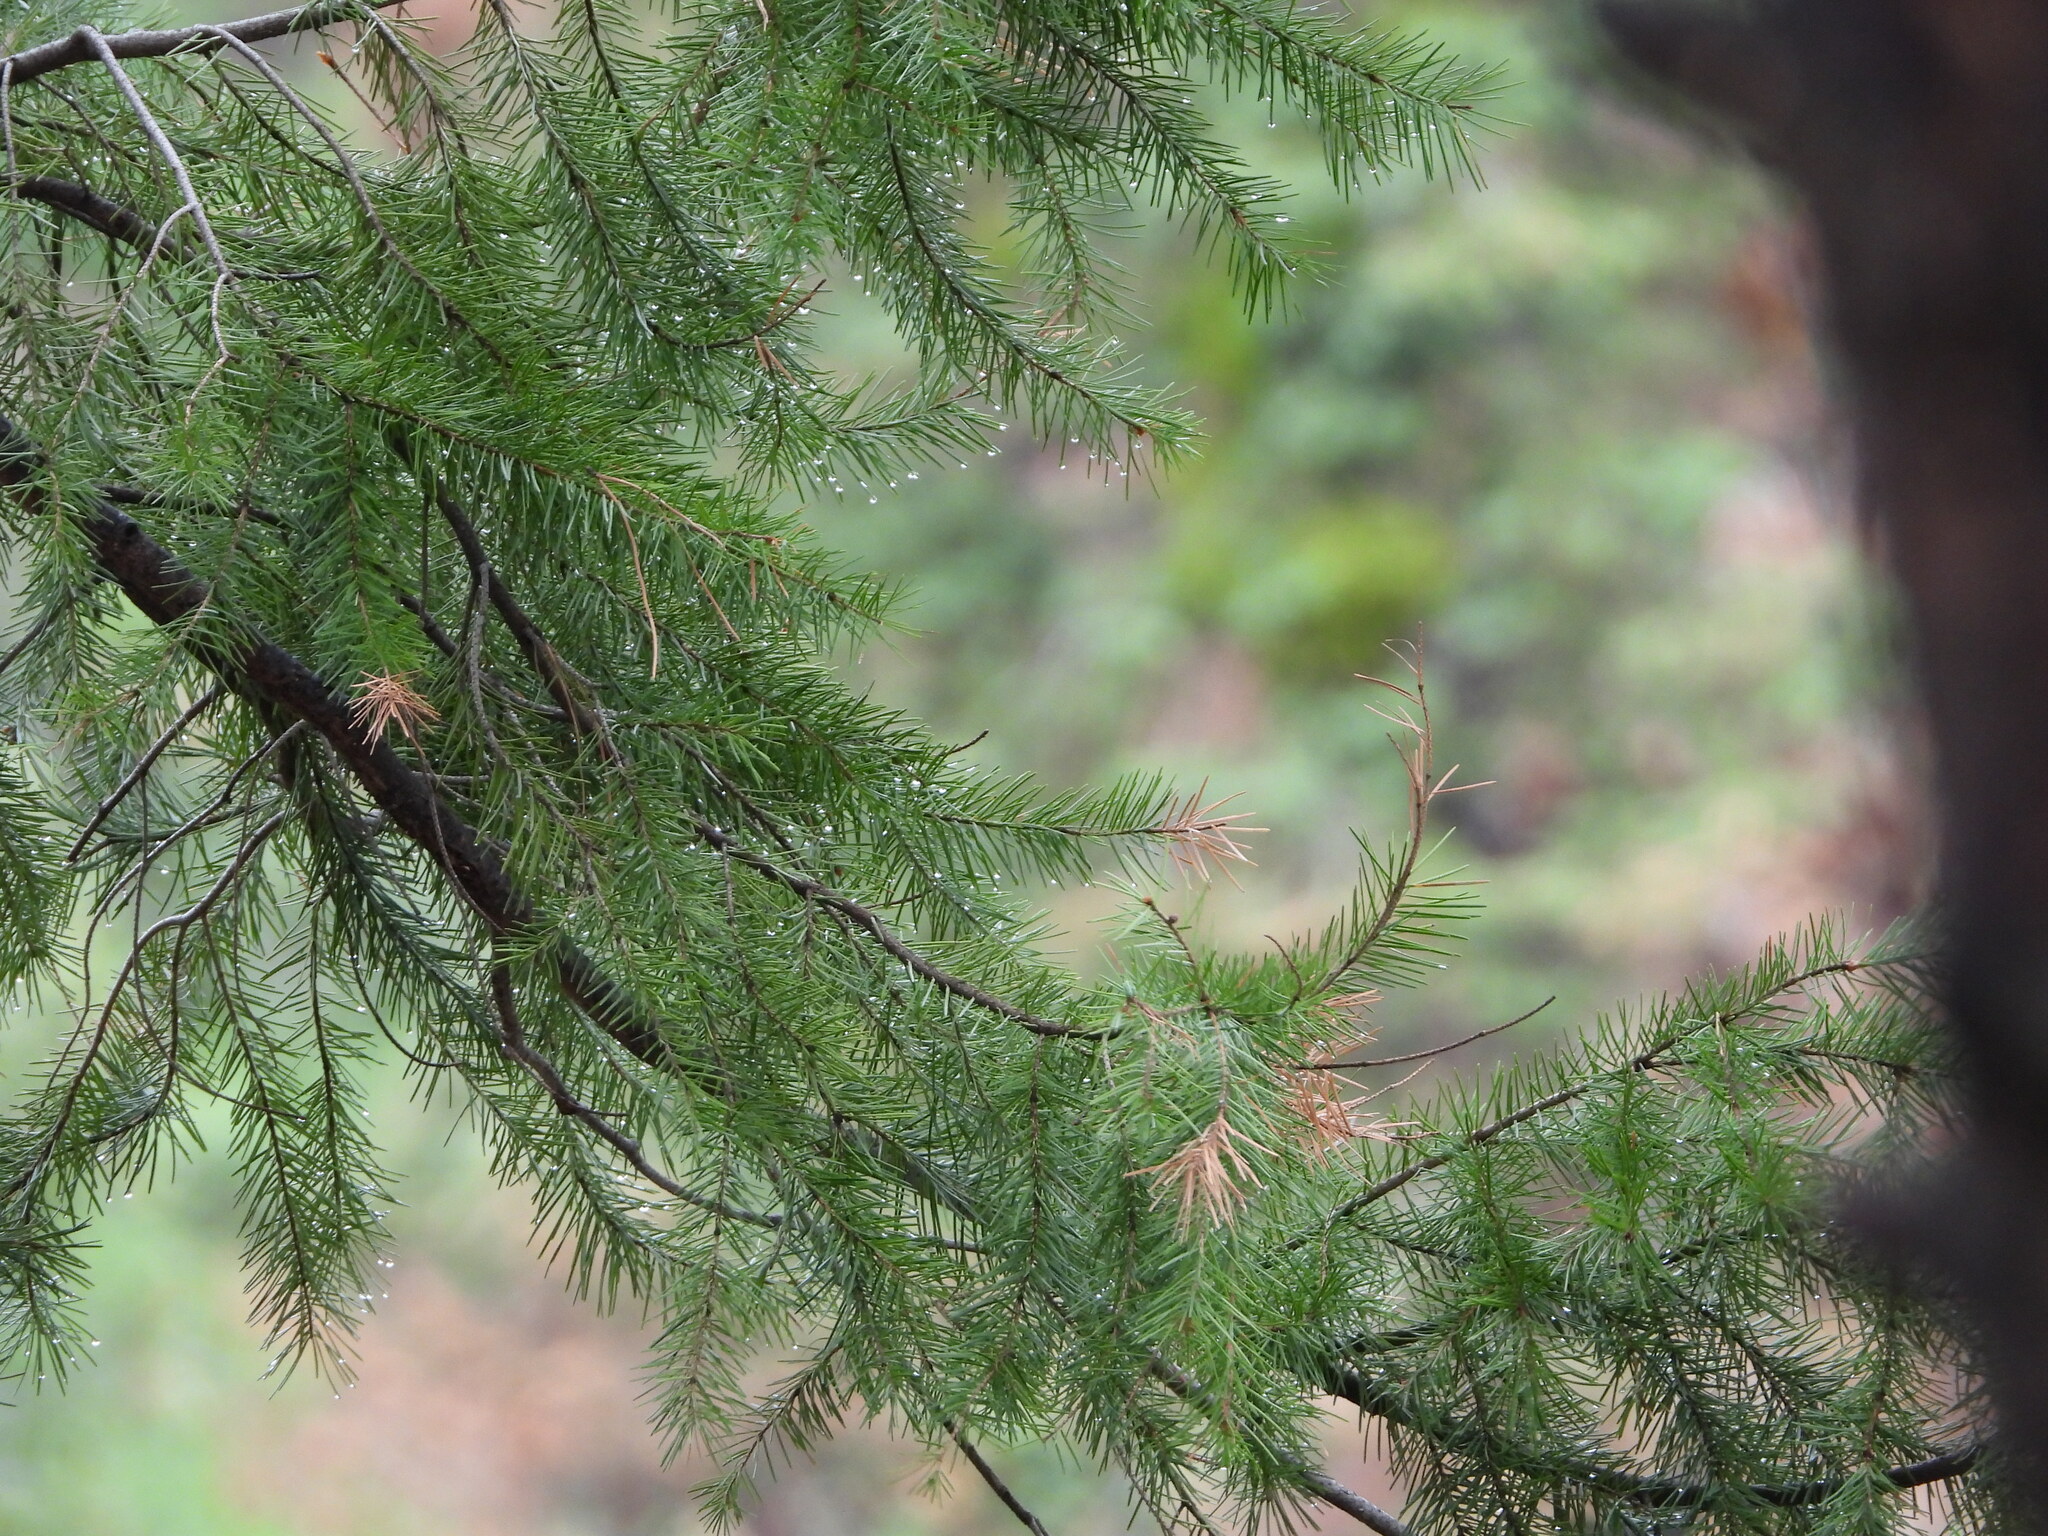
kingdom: Plantae
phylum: Tracheophyta
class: Pinopsida
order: Pinales
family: Pinaceae
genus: Pseudotsuga
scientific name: Pseudotsuga menziesii
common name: Douglas fir
